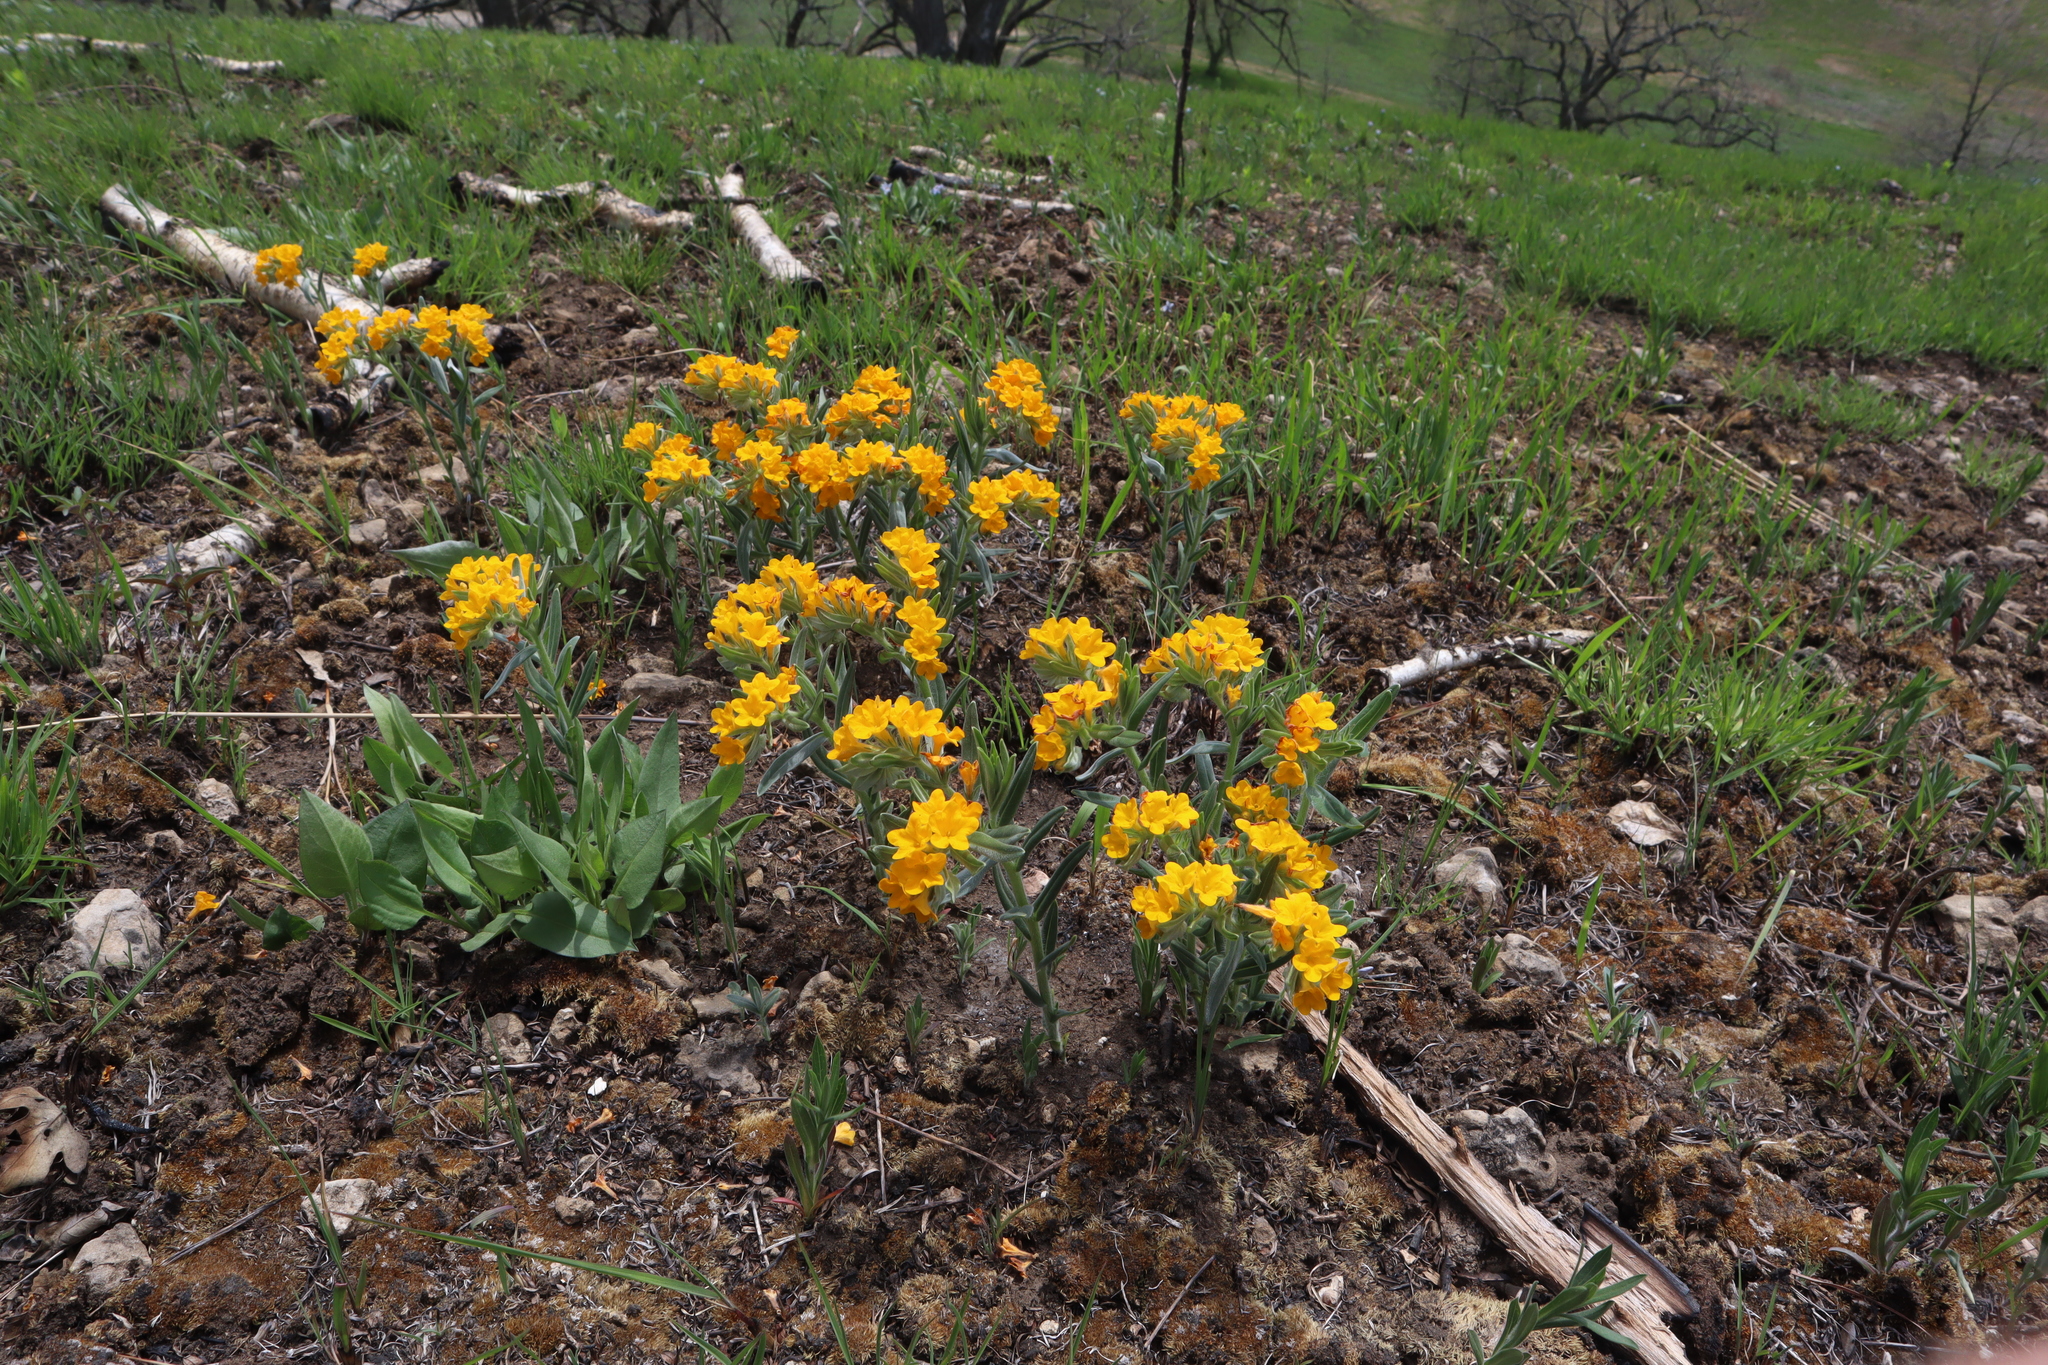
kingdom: Plantae
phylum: Tracheophyta
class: Magnoliopsida
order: Boraginales
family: Boraginaceae
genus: Lithospermum
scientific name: Lithospermum canescens
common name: Hoary puccoon
